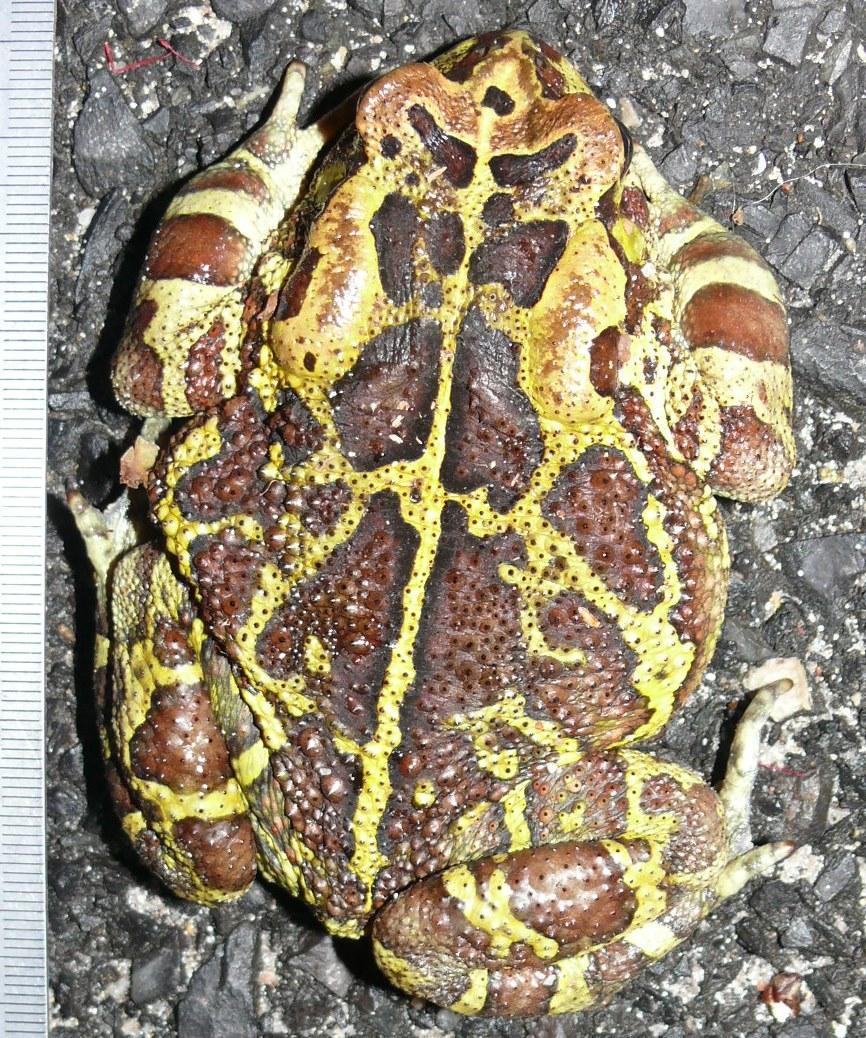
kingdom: Animalia
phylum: Chordata
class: Amphibia
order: Anura
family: Bufonidae
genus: Sclerophrys
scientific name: Sclerophrys pantherina
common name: Panther toad
